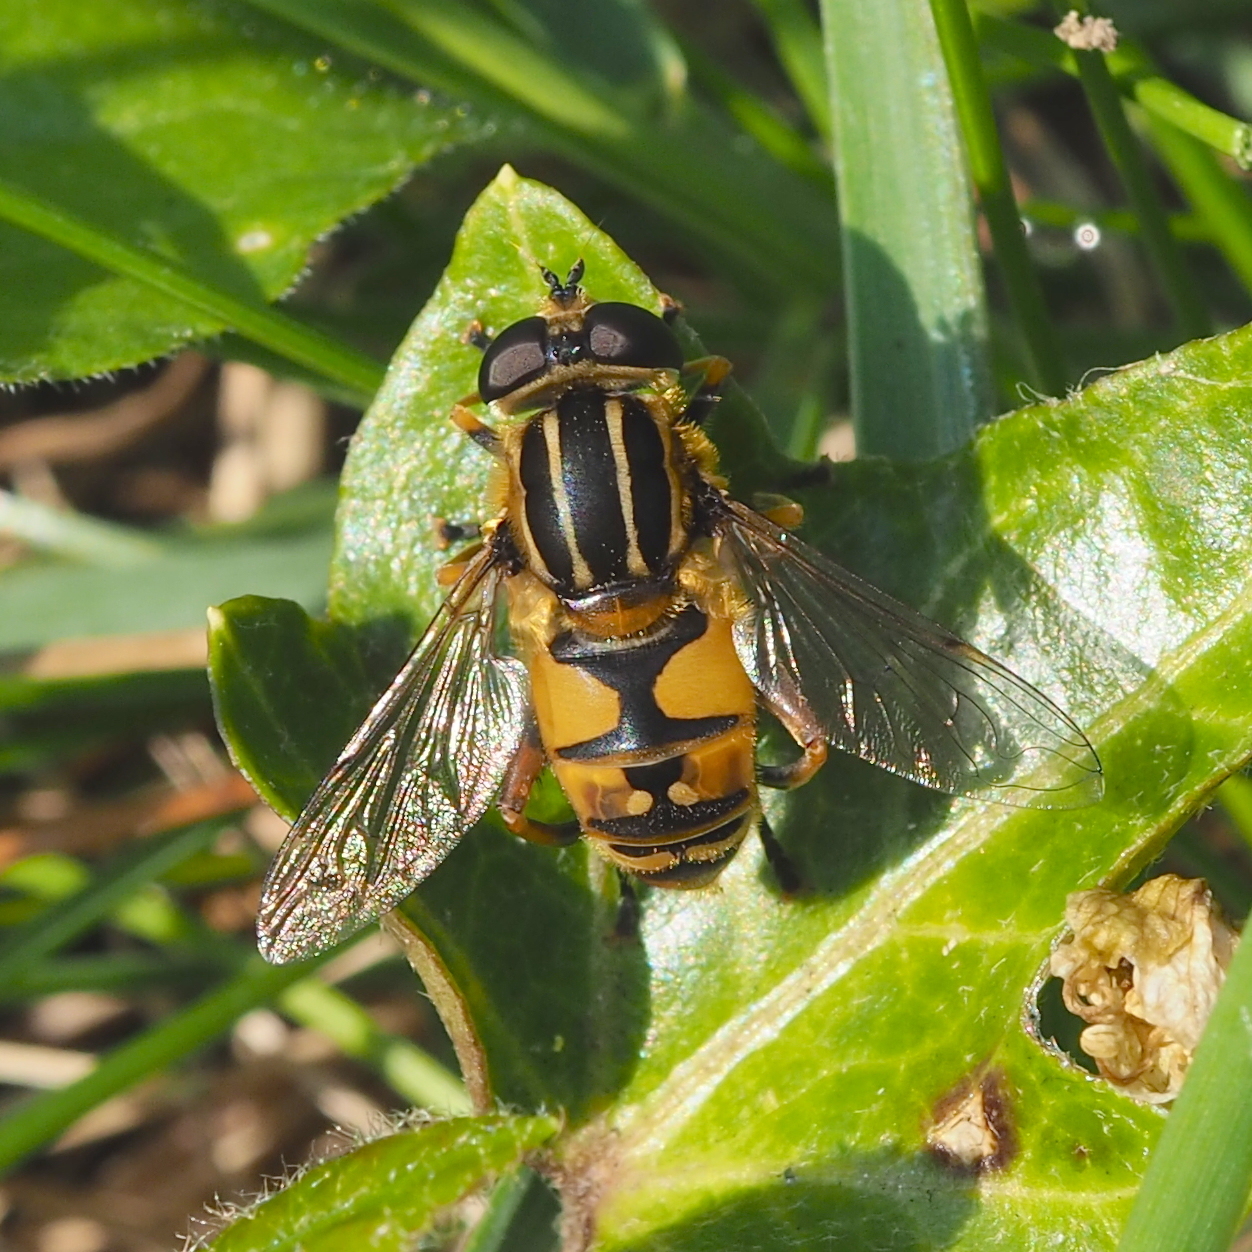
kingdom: Animalia
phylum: Arthropoda
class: Insecta
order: Diptera
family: Syrphidae
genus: Helophilus
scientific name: Helophilus pendulus
